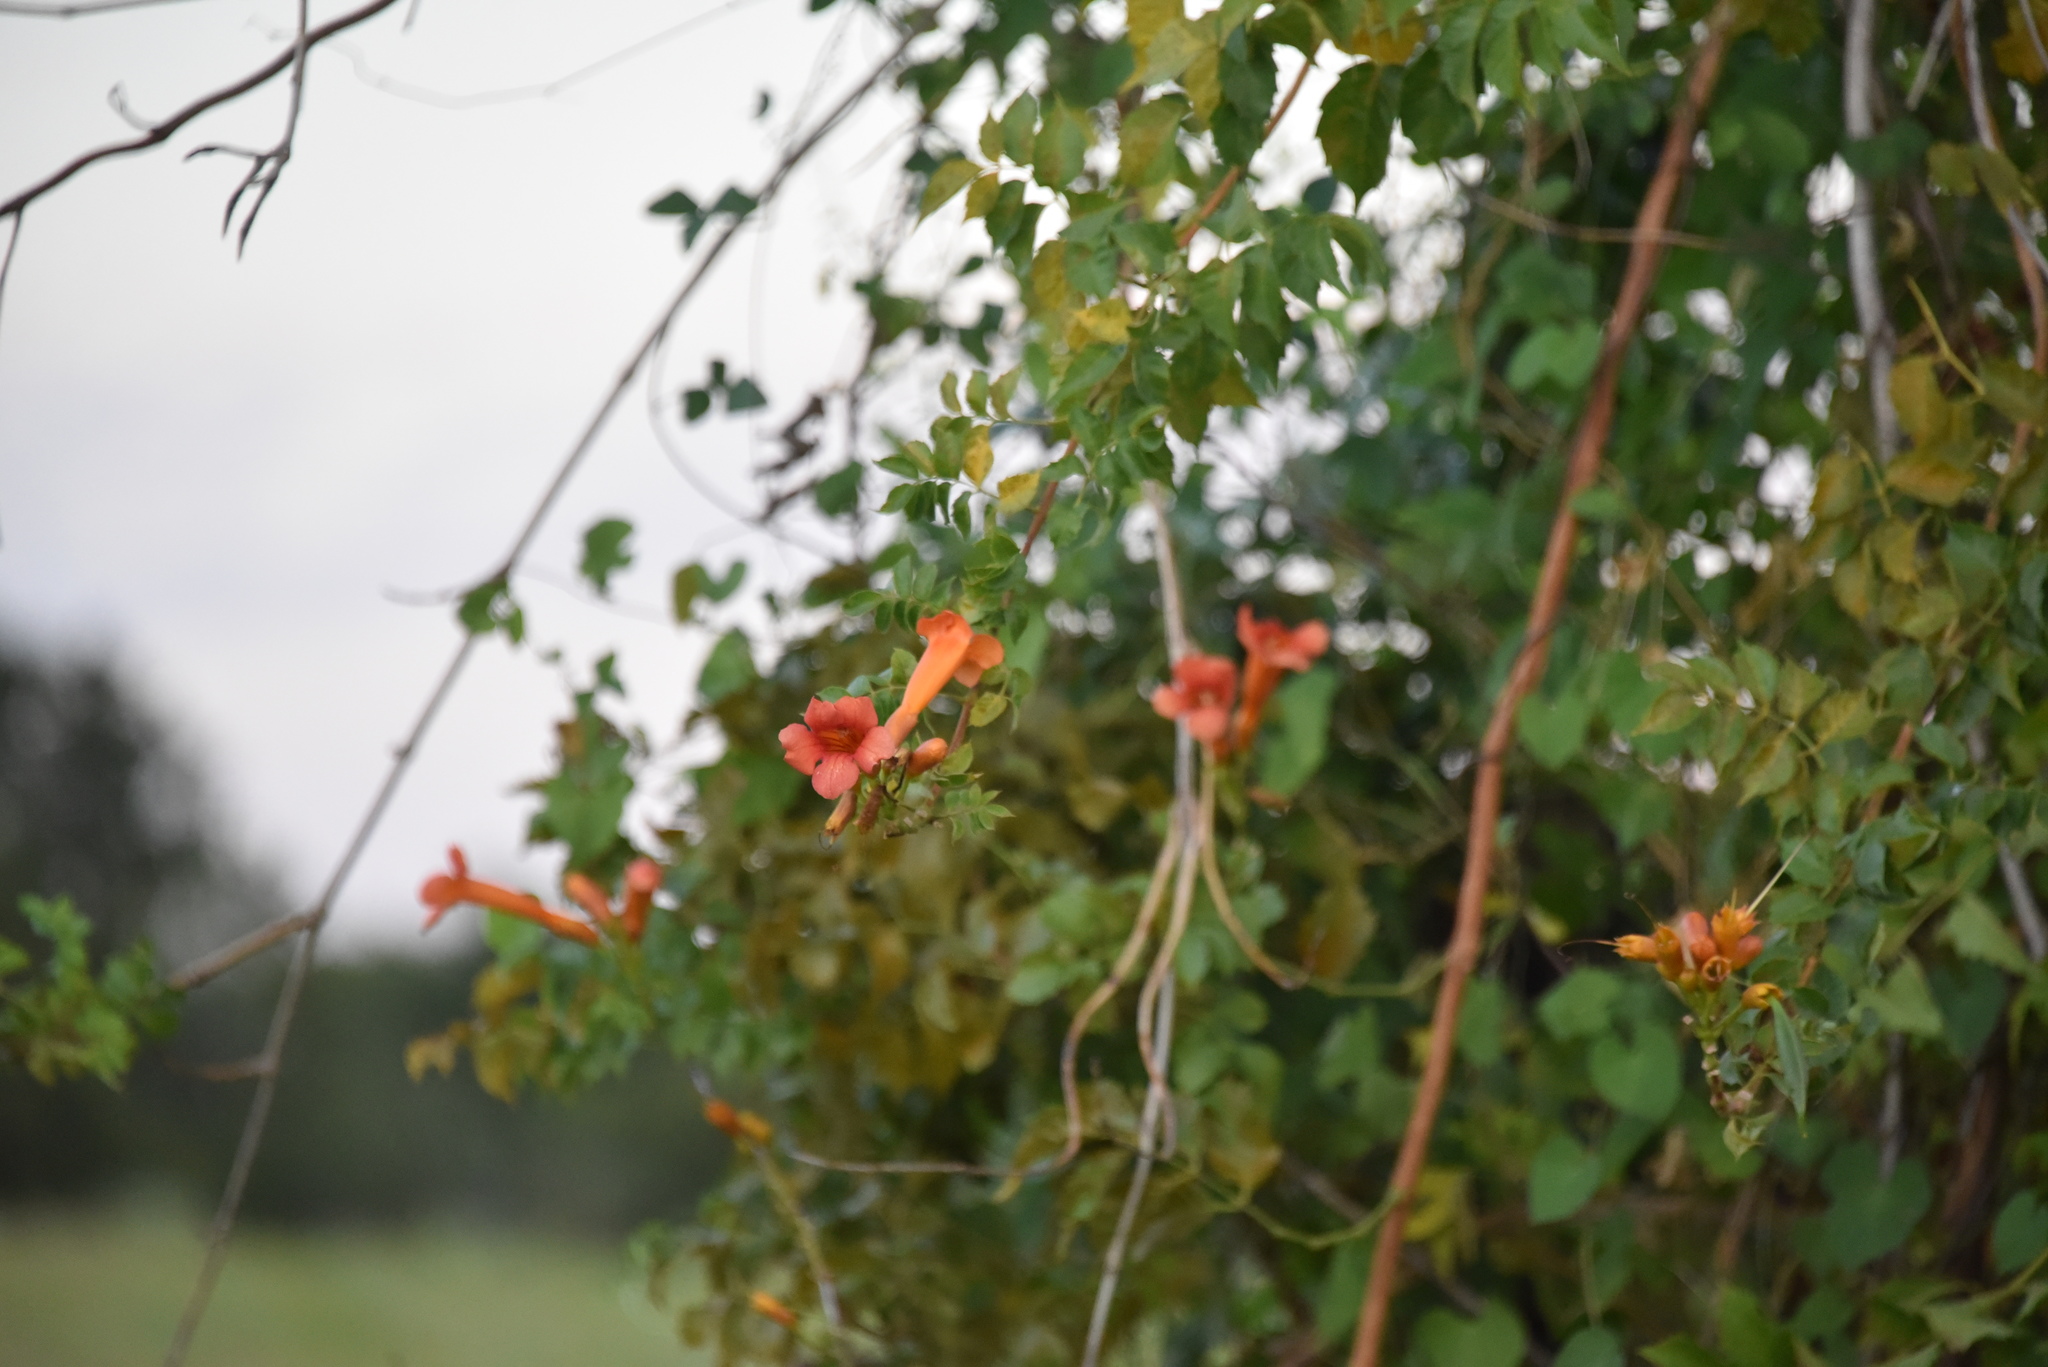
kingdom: Plantae
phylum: Tracheophyta
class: Magnoliopsida
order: Lamiales
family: Bignoniaceae
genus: Campsis
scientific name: Campsis radicans
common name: Trumpet-creeper
